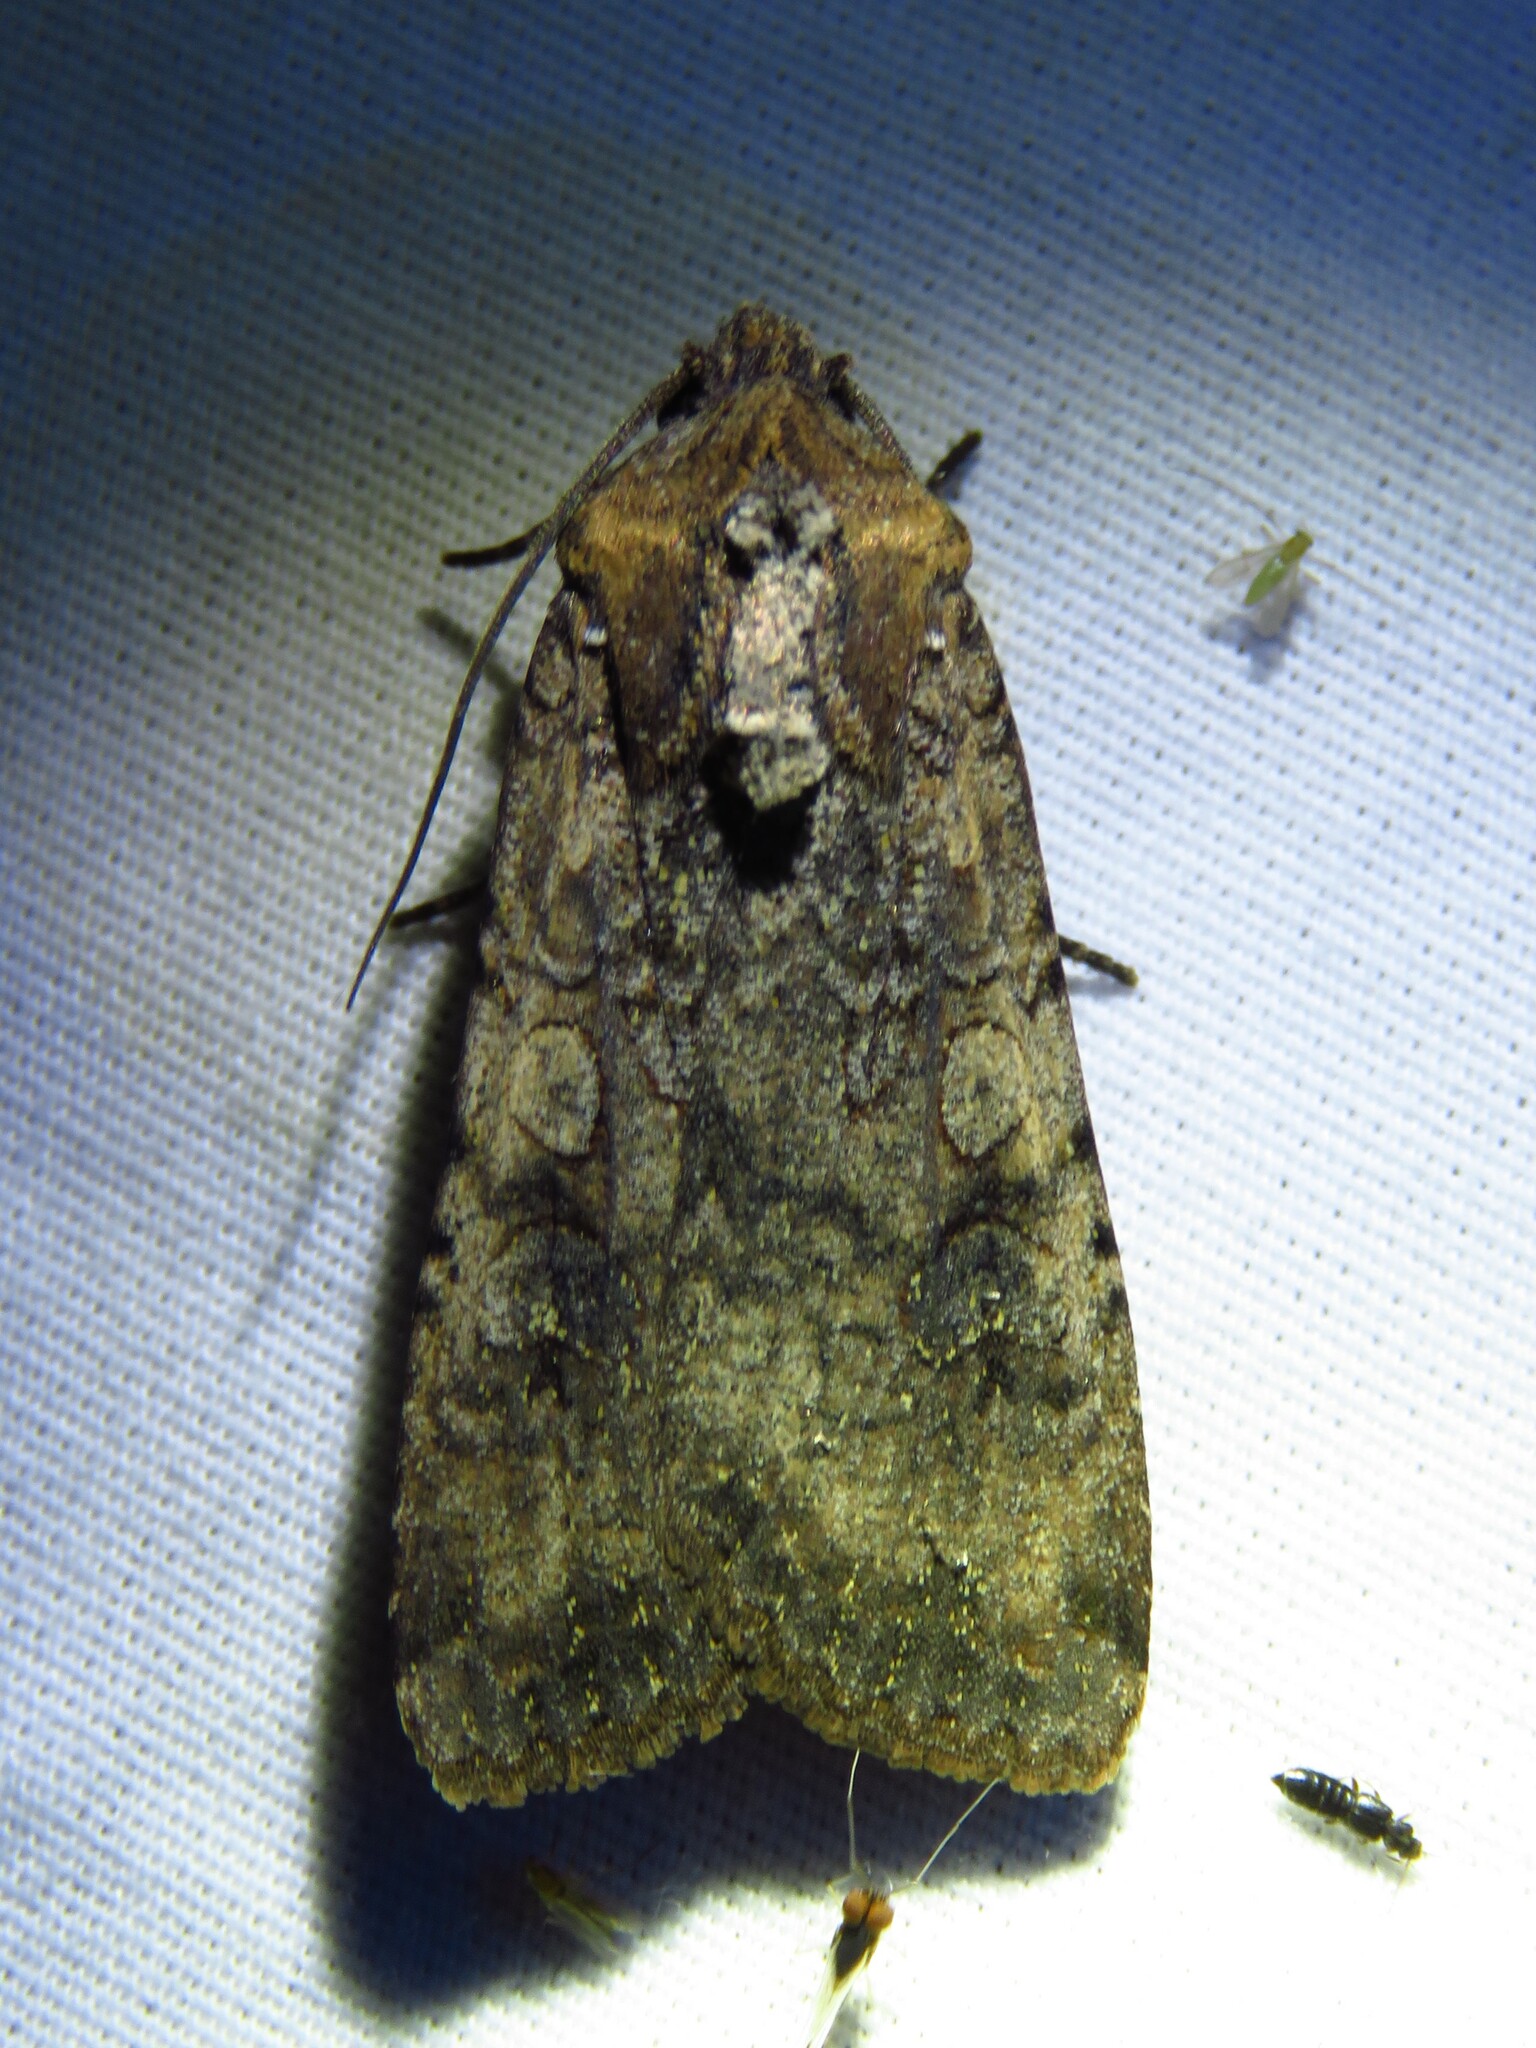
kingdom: Animalia
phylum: Arthropoda
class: Insecta
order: Lepidoptera
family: Noctuidae
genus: Peridroma
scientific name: Peridroma saucia
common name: Pearly underwing
